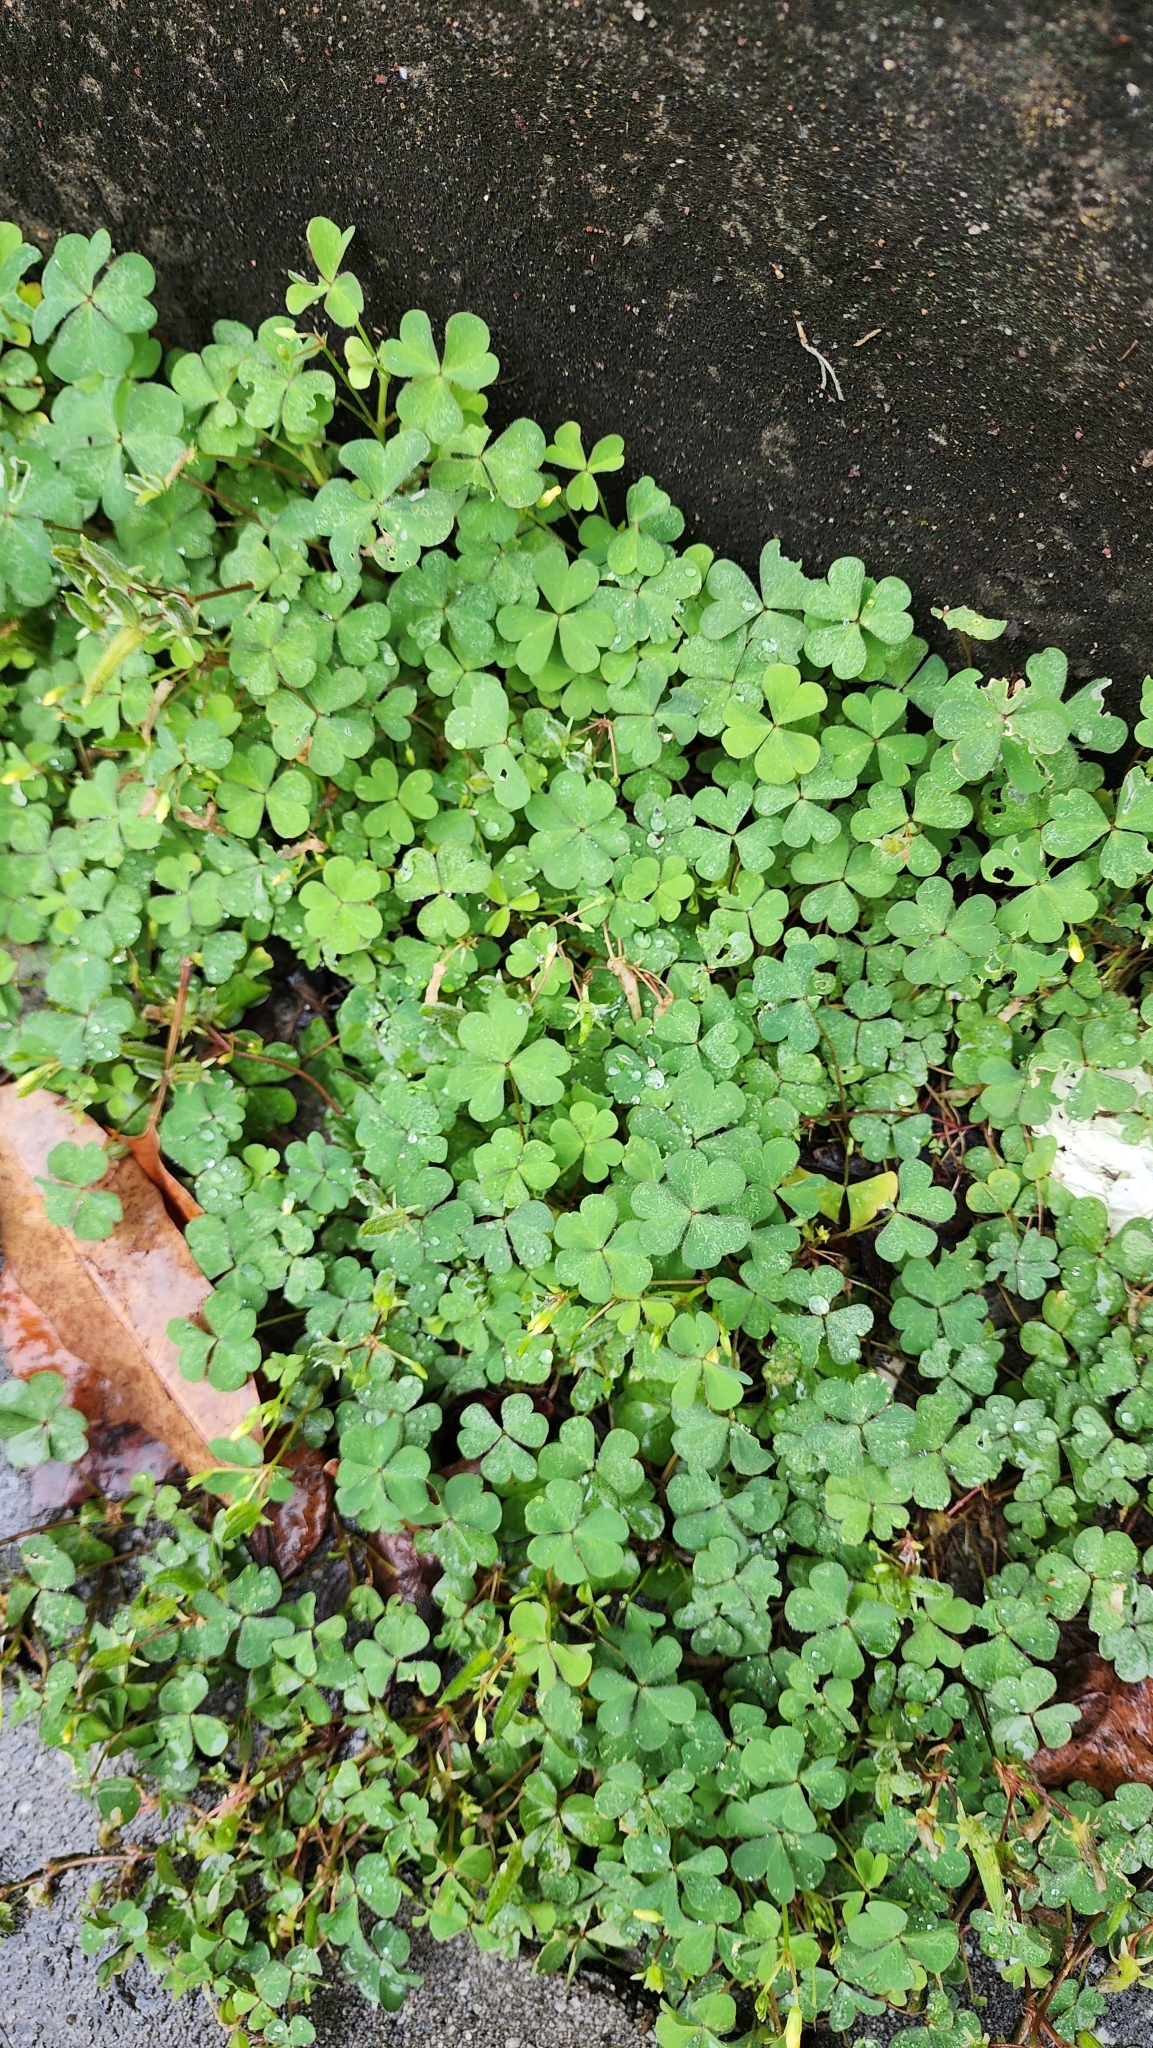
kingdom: Plantae
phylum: Tracheophyta
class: Magnoliopsida
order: Oxalidales
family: Oxalidaceae
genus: Oxalis
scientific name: Oxalis corniculata
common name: Procumbent yellow-sorrel
